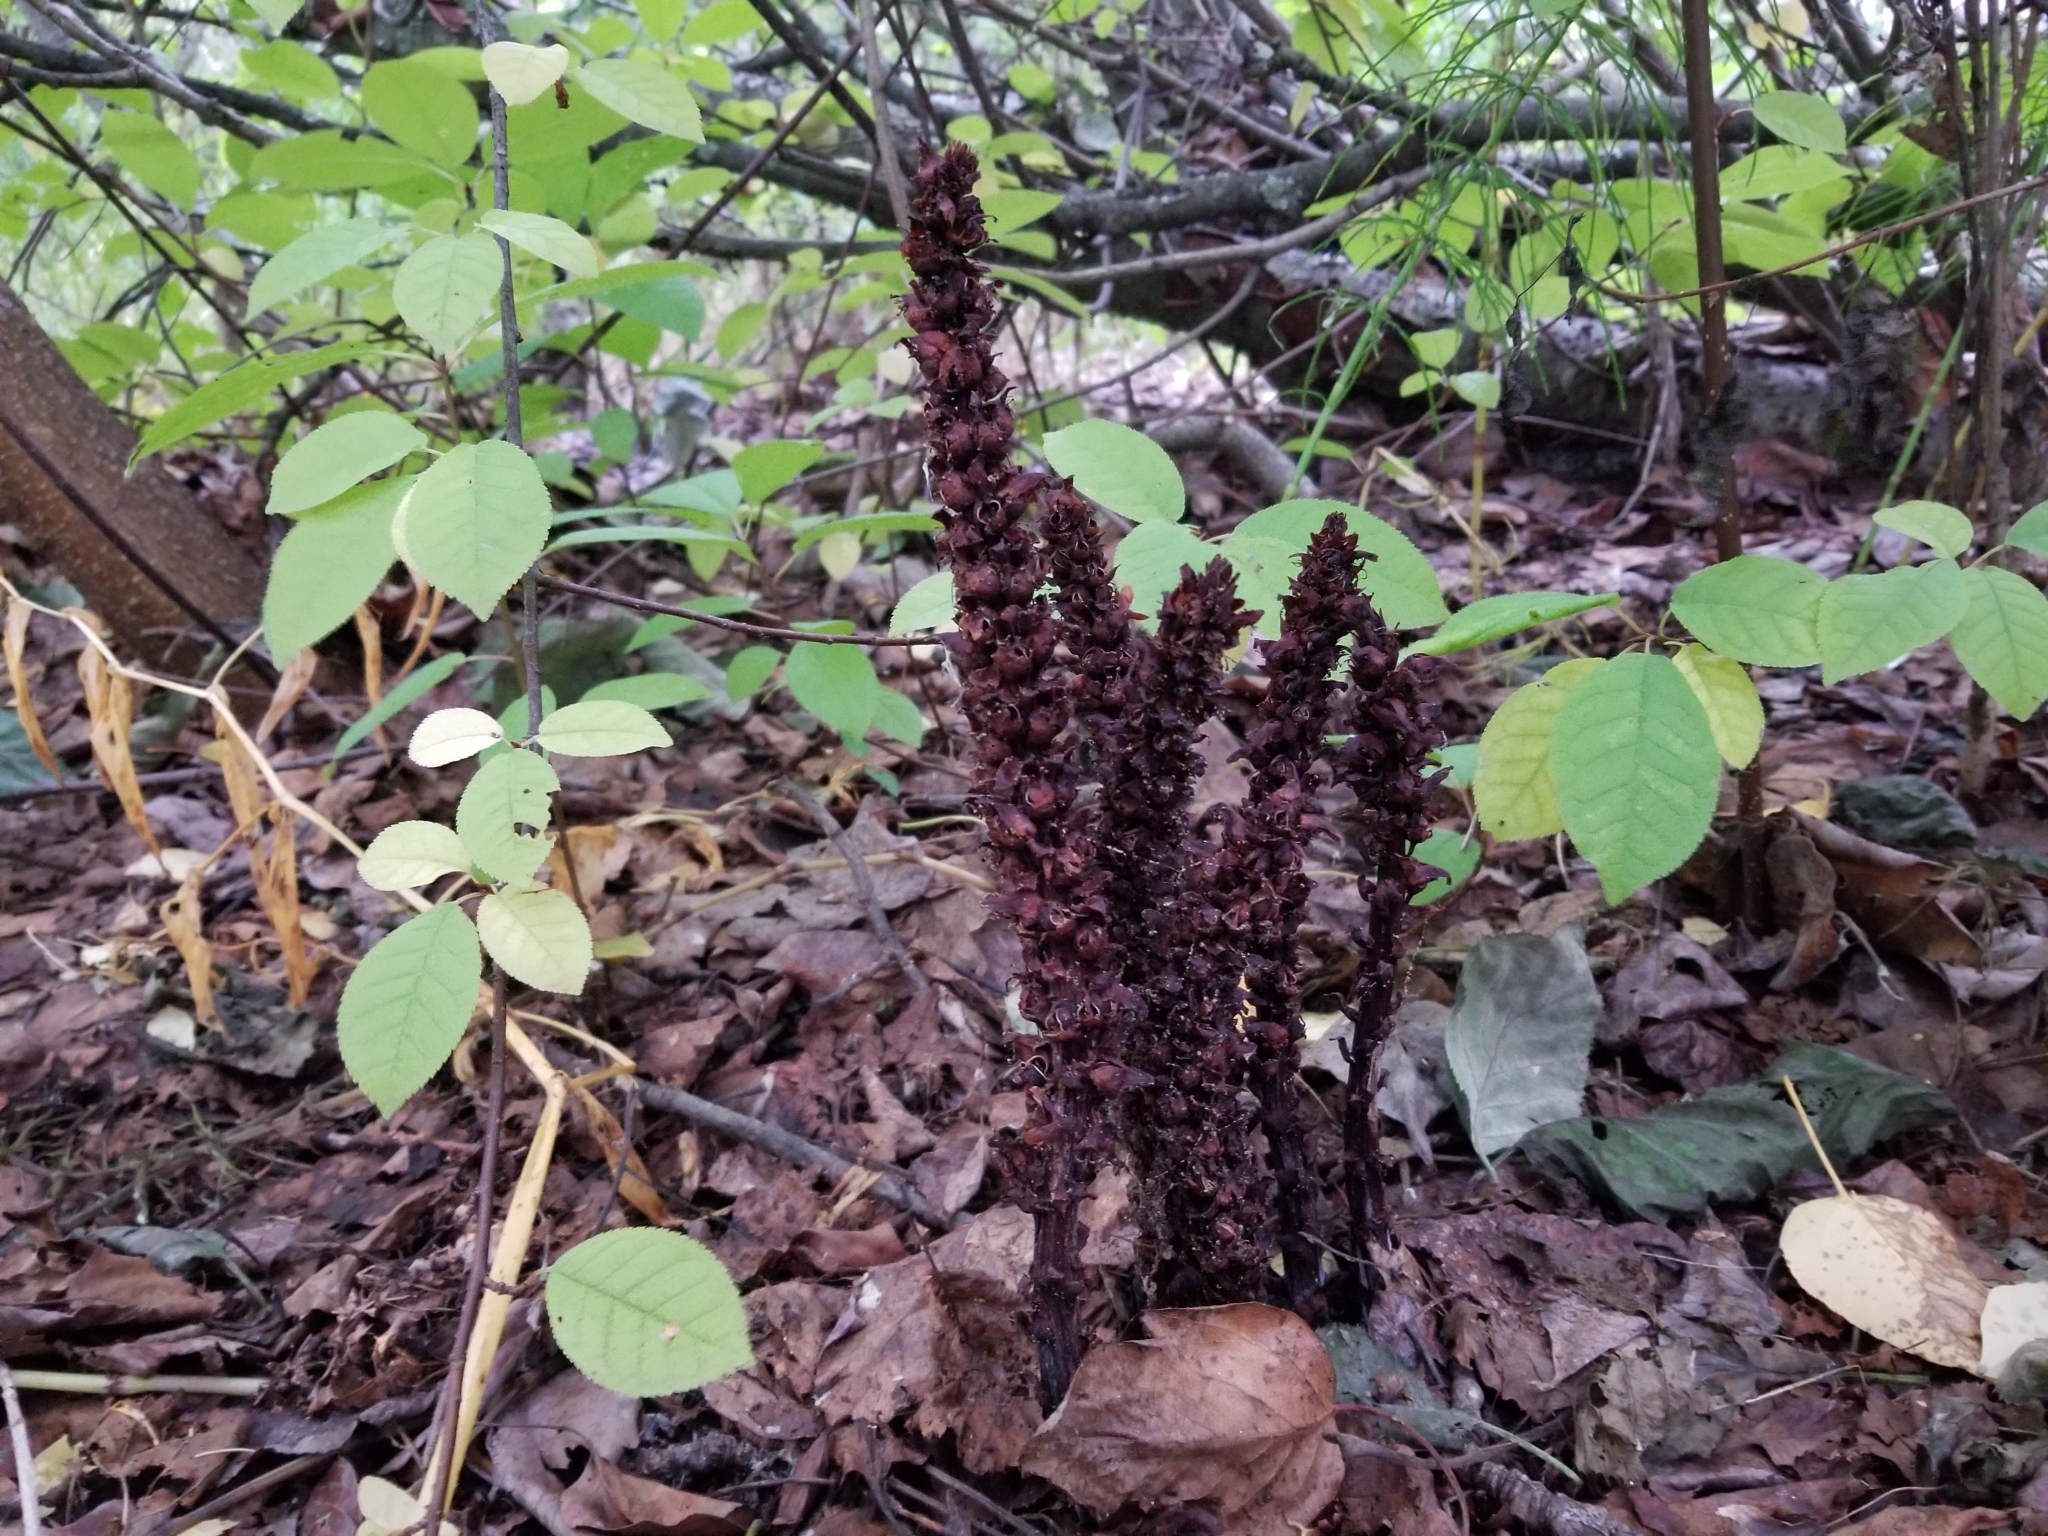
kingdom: Plantae
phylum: Tracheophyta
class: Magnoliopsida
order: Lamiales
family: Orobanchaceae
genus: Boschniakia
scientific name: Boschniakia rossica
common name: Poque
